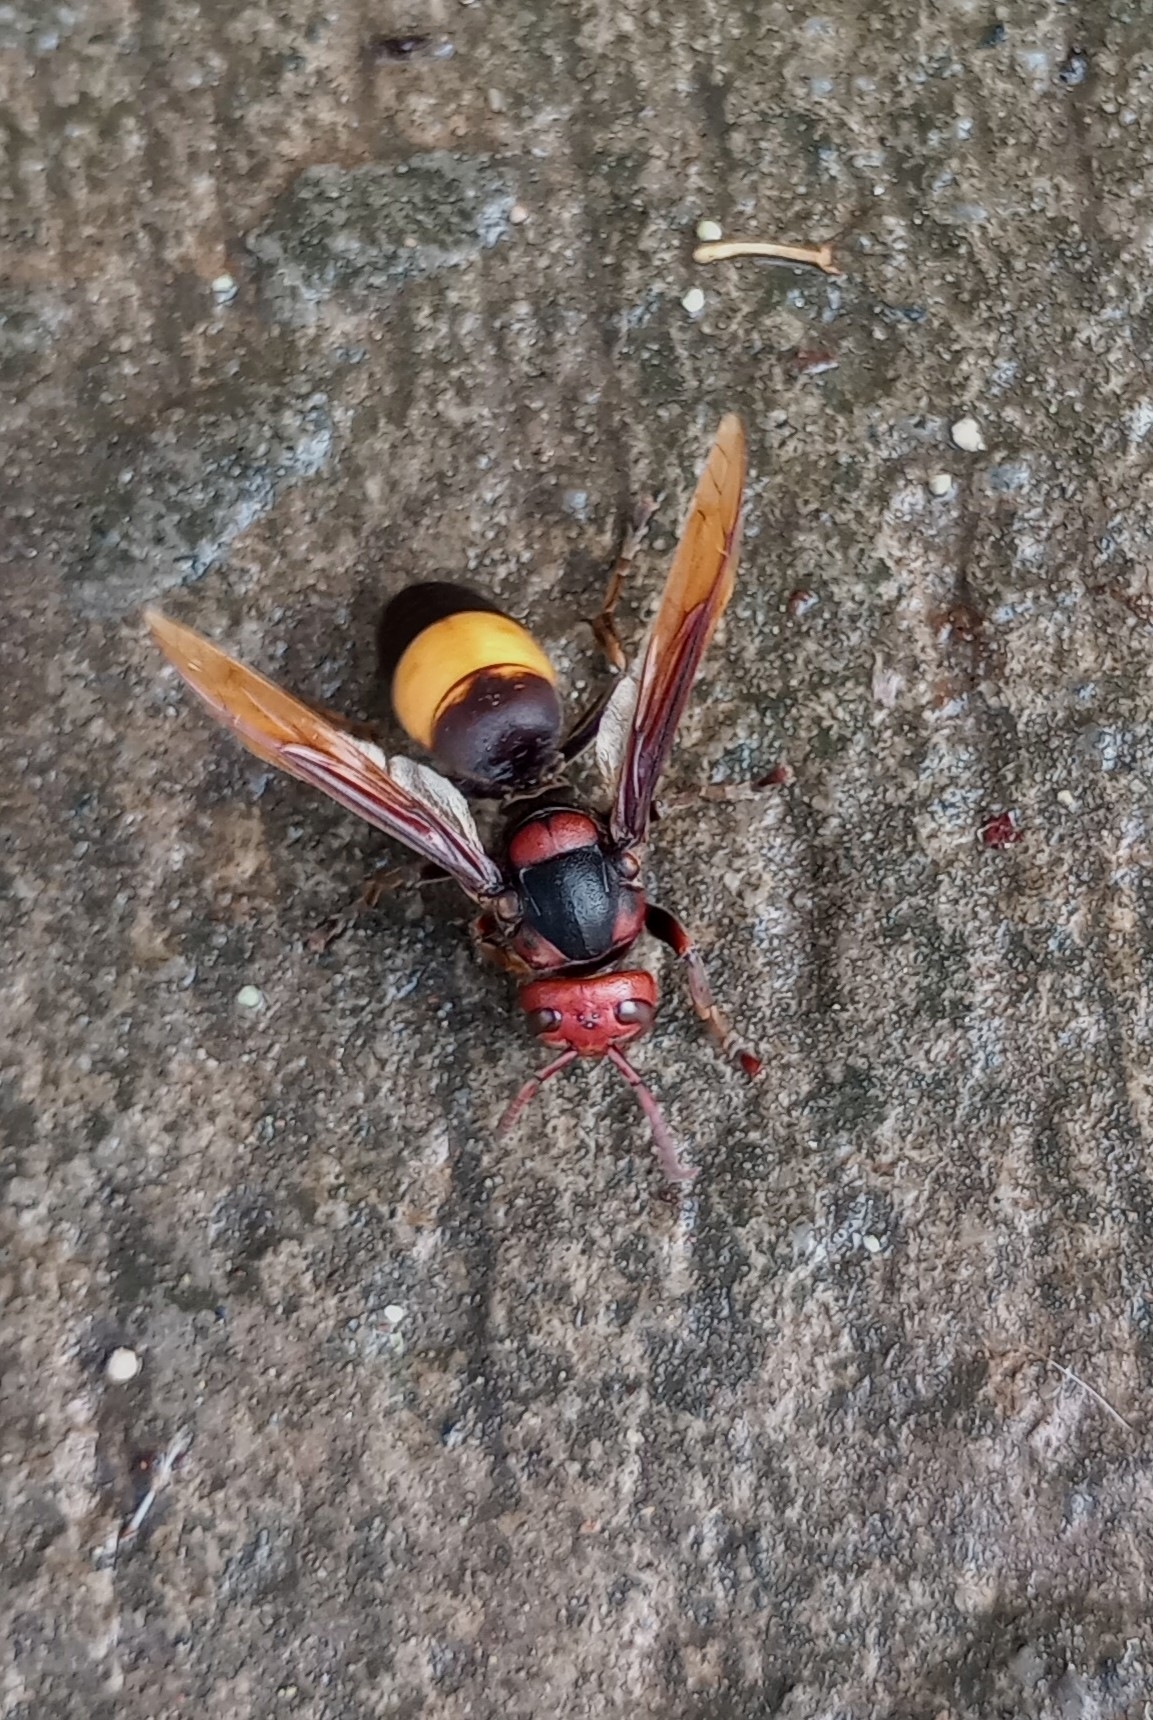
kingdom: Animalia
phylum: Arthropoda
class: Insecta
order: Hymenoptera
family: Vespidae
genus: Vespa
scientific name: Vespa tropica
